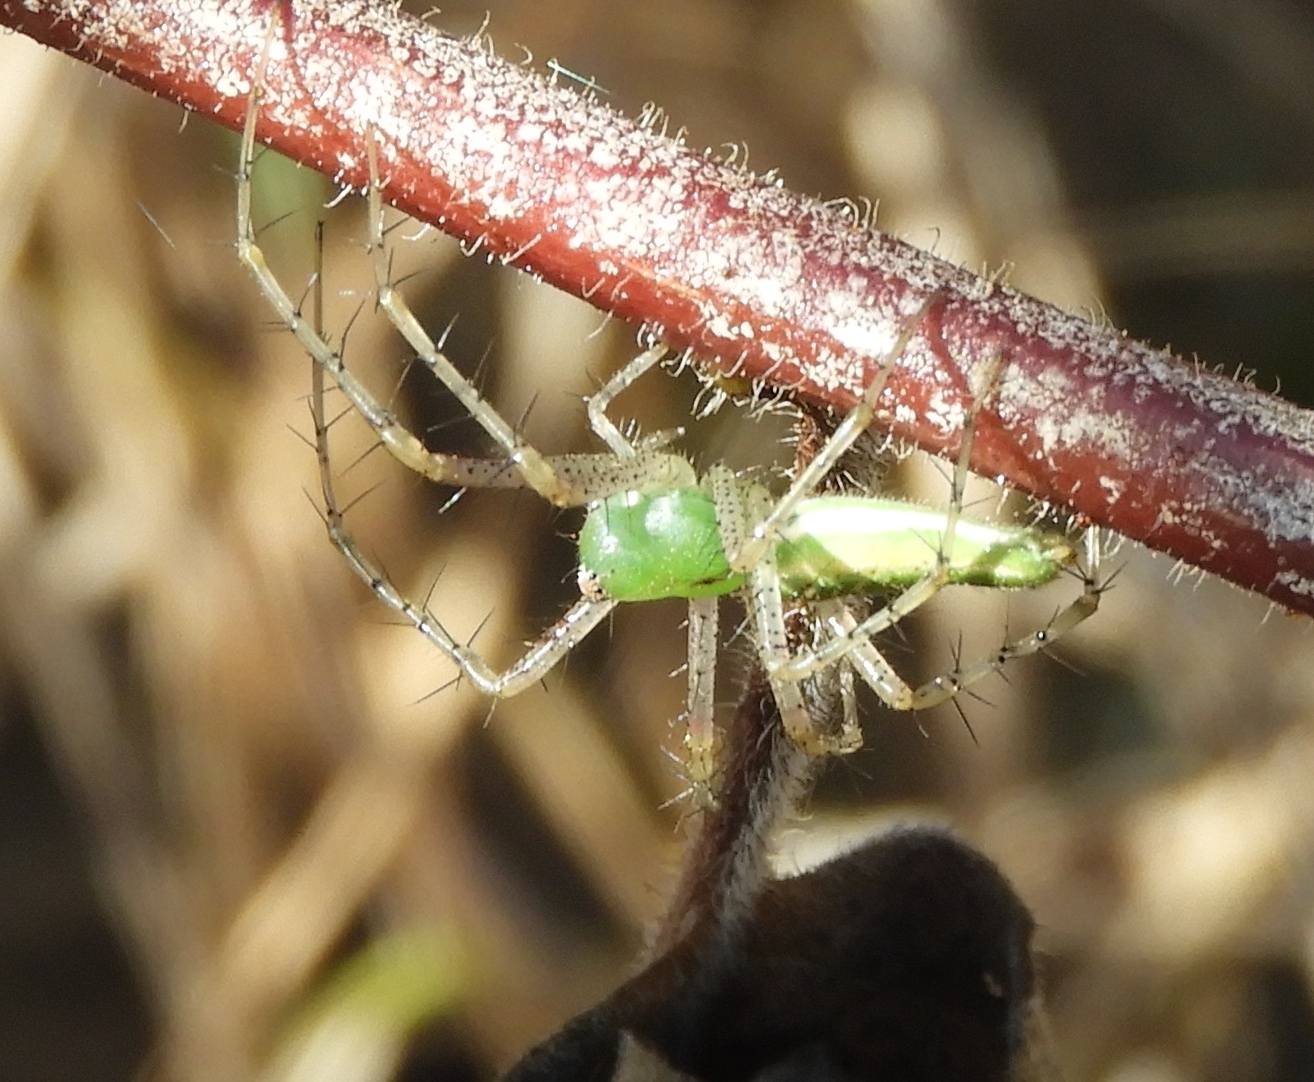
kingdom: Animalia
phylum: Arthropoda
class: Arachnida
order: Araneae
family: Oxyopidae
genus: Peucetia
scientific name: Peucetia longipalpis
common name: Lynx spiders
